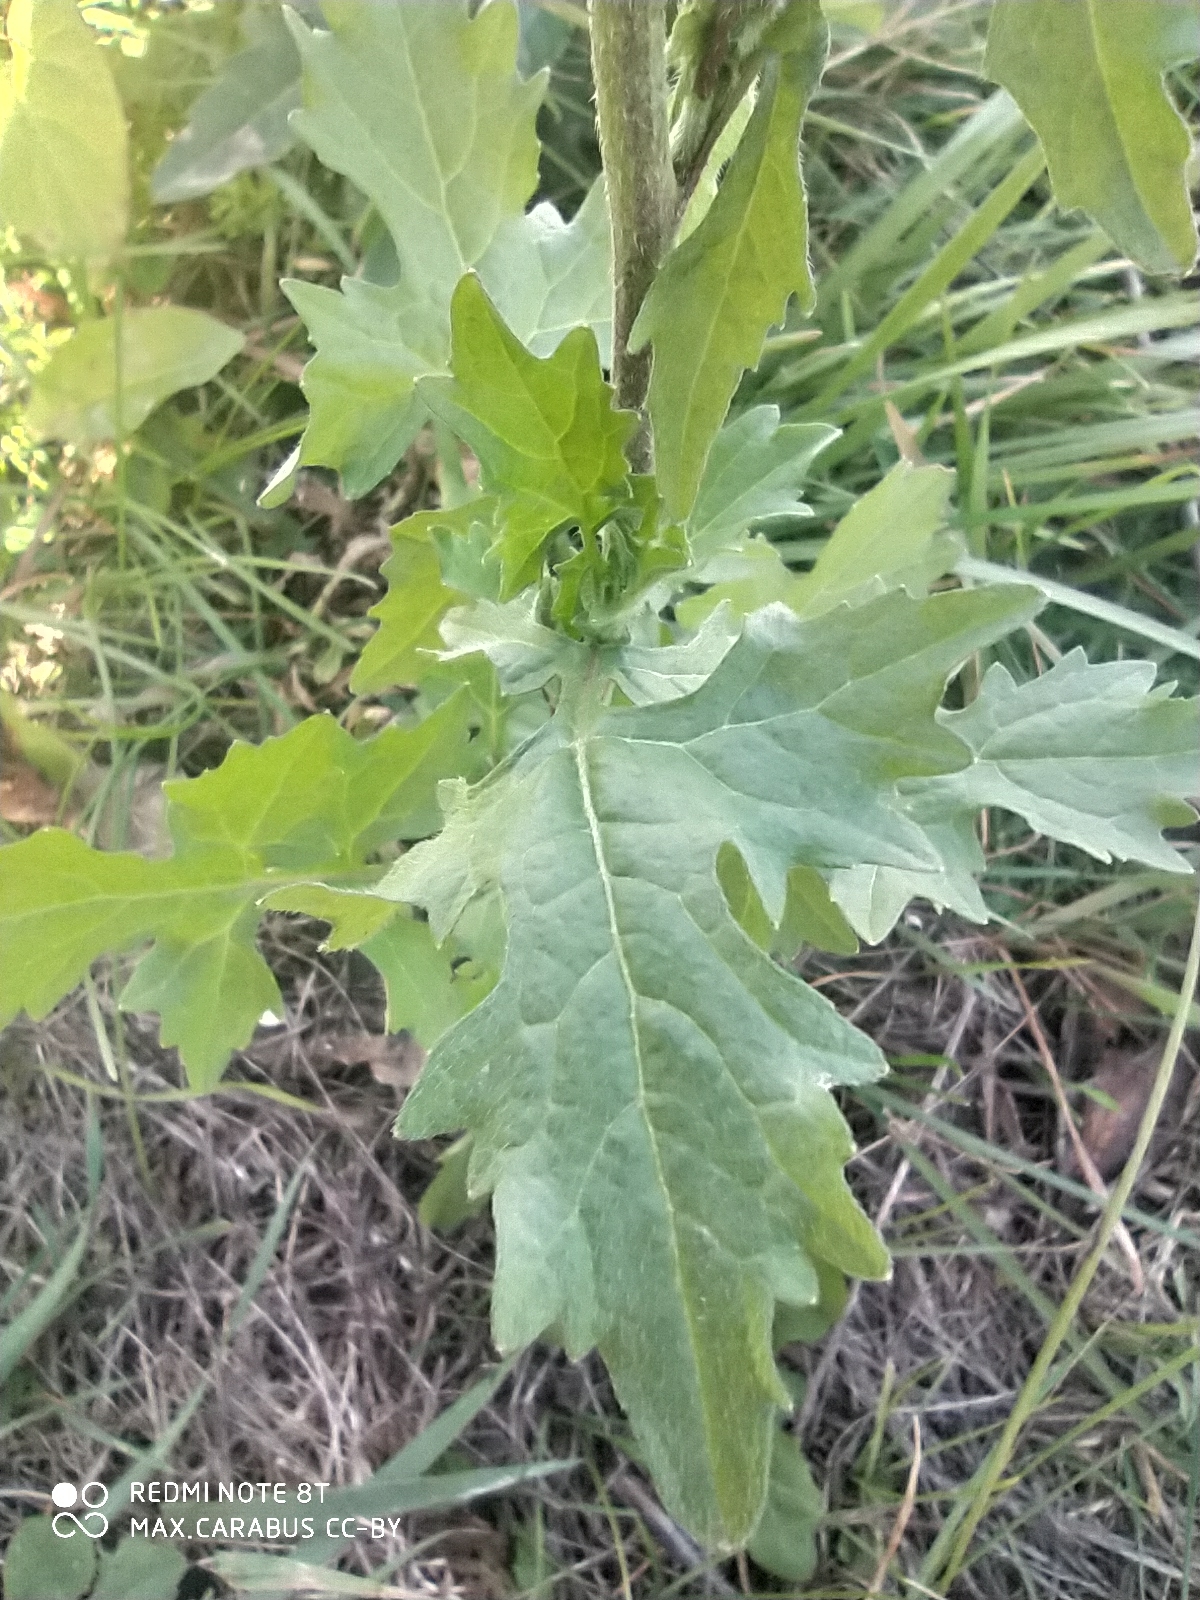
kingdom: Plantae
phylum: Tracheophyta
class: Magnoliopsida
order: Brassicales
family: Brassicaceae
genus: Sisymbrium
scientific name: Sisymbrium officinale
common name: Hedge mustard
